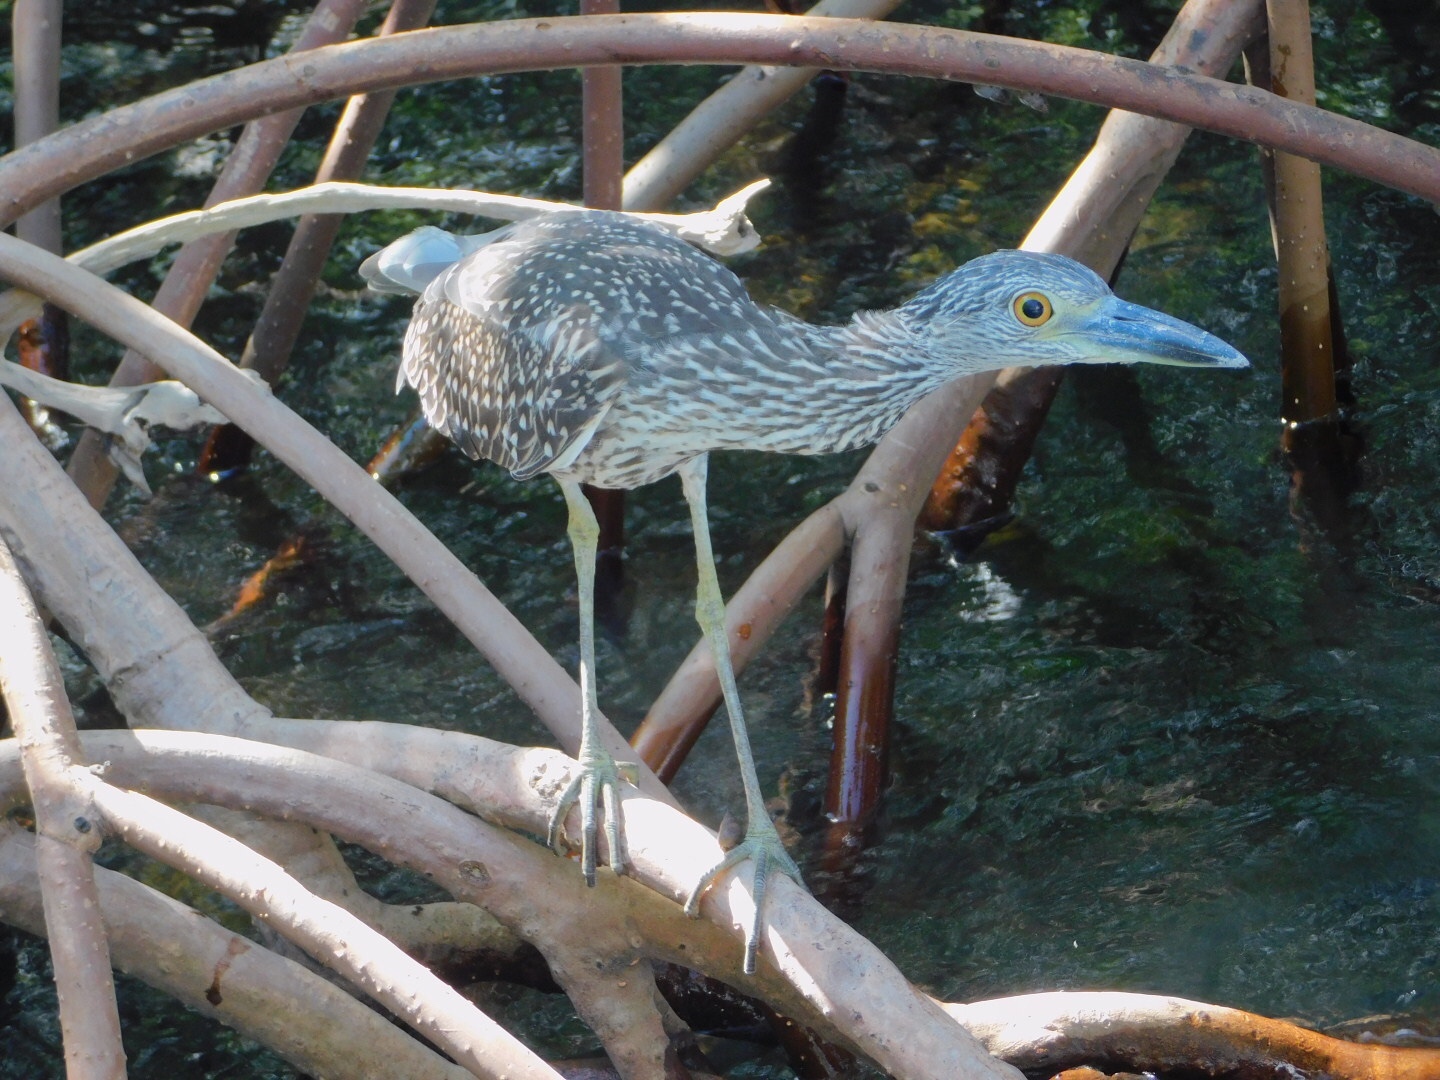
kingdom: Animalia
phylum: Chordata
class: Aves
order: Pelecaniformes
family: Ardeidae
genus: Nyctanassa
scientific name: Nyctanassa violacea
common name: Yellow-crowned night heron
